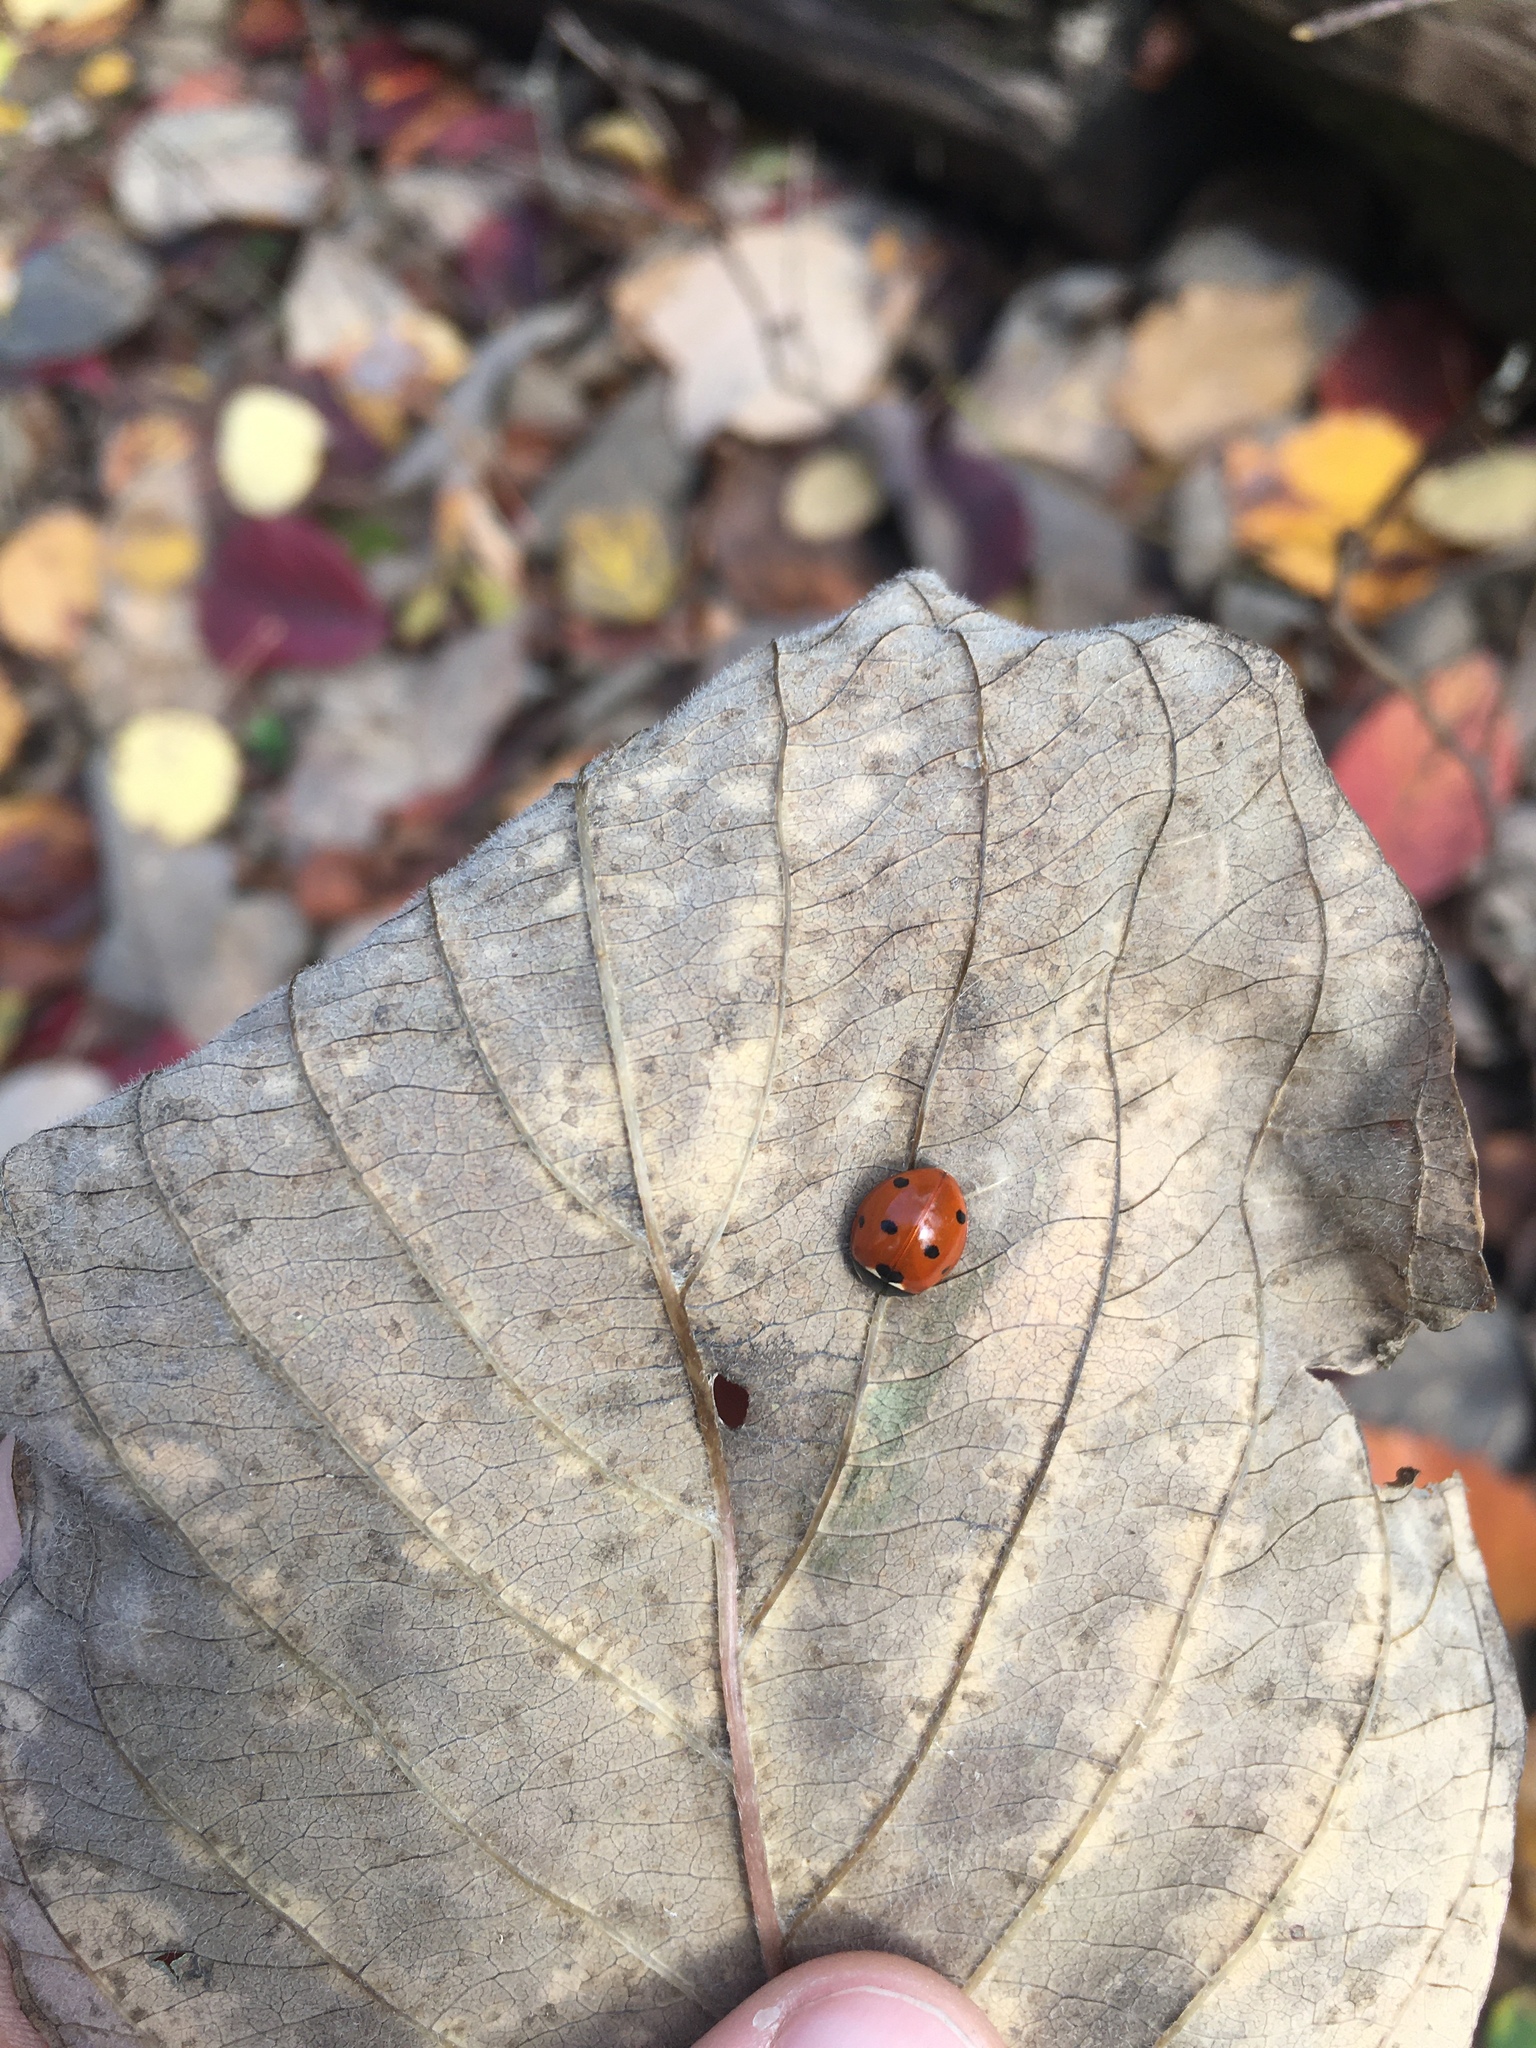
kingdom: Animalia
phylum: Arthropoda
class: Insecta
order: Coleoptera
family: Coccinellidae
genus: Coccinella
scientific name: Coccinella septempunctata
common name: Sevenspotted lady beetle
